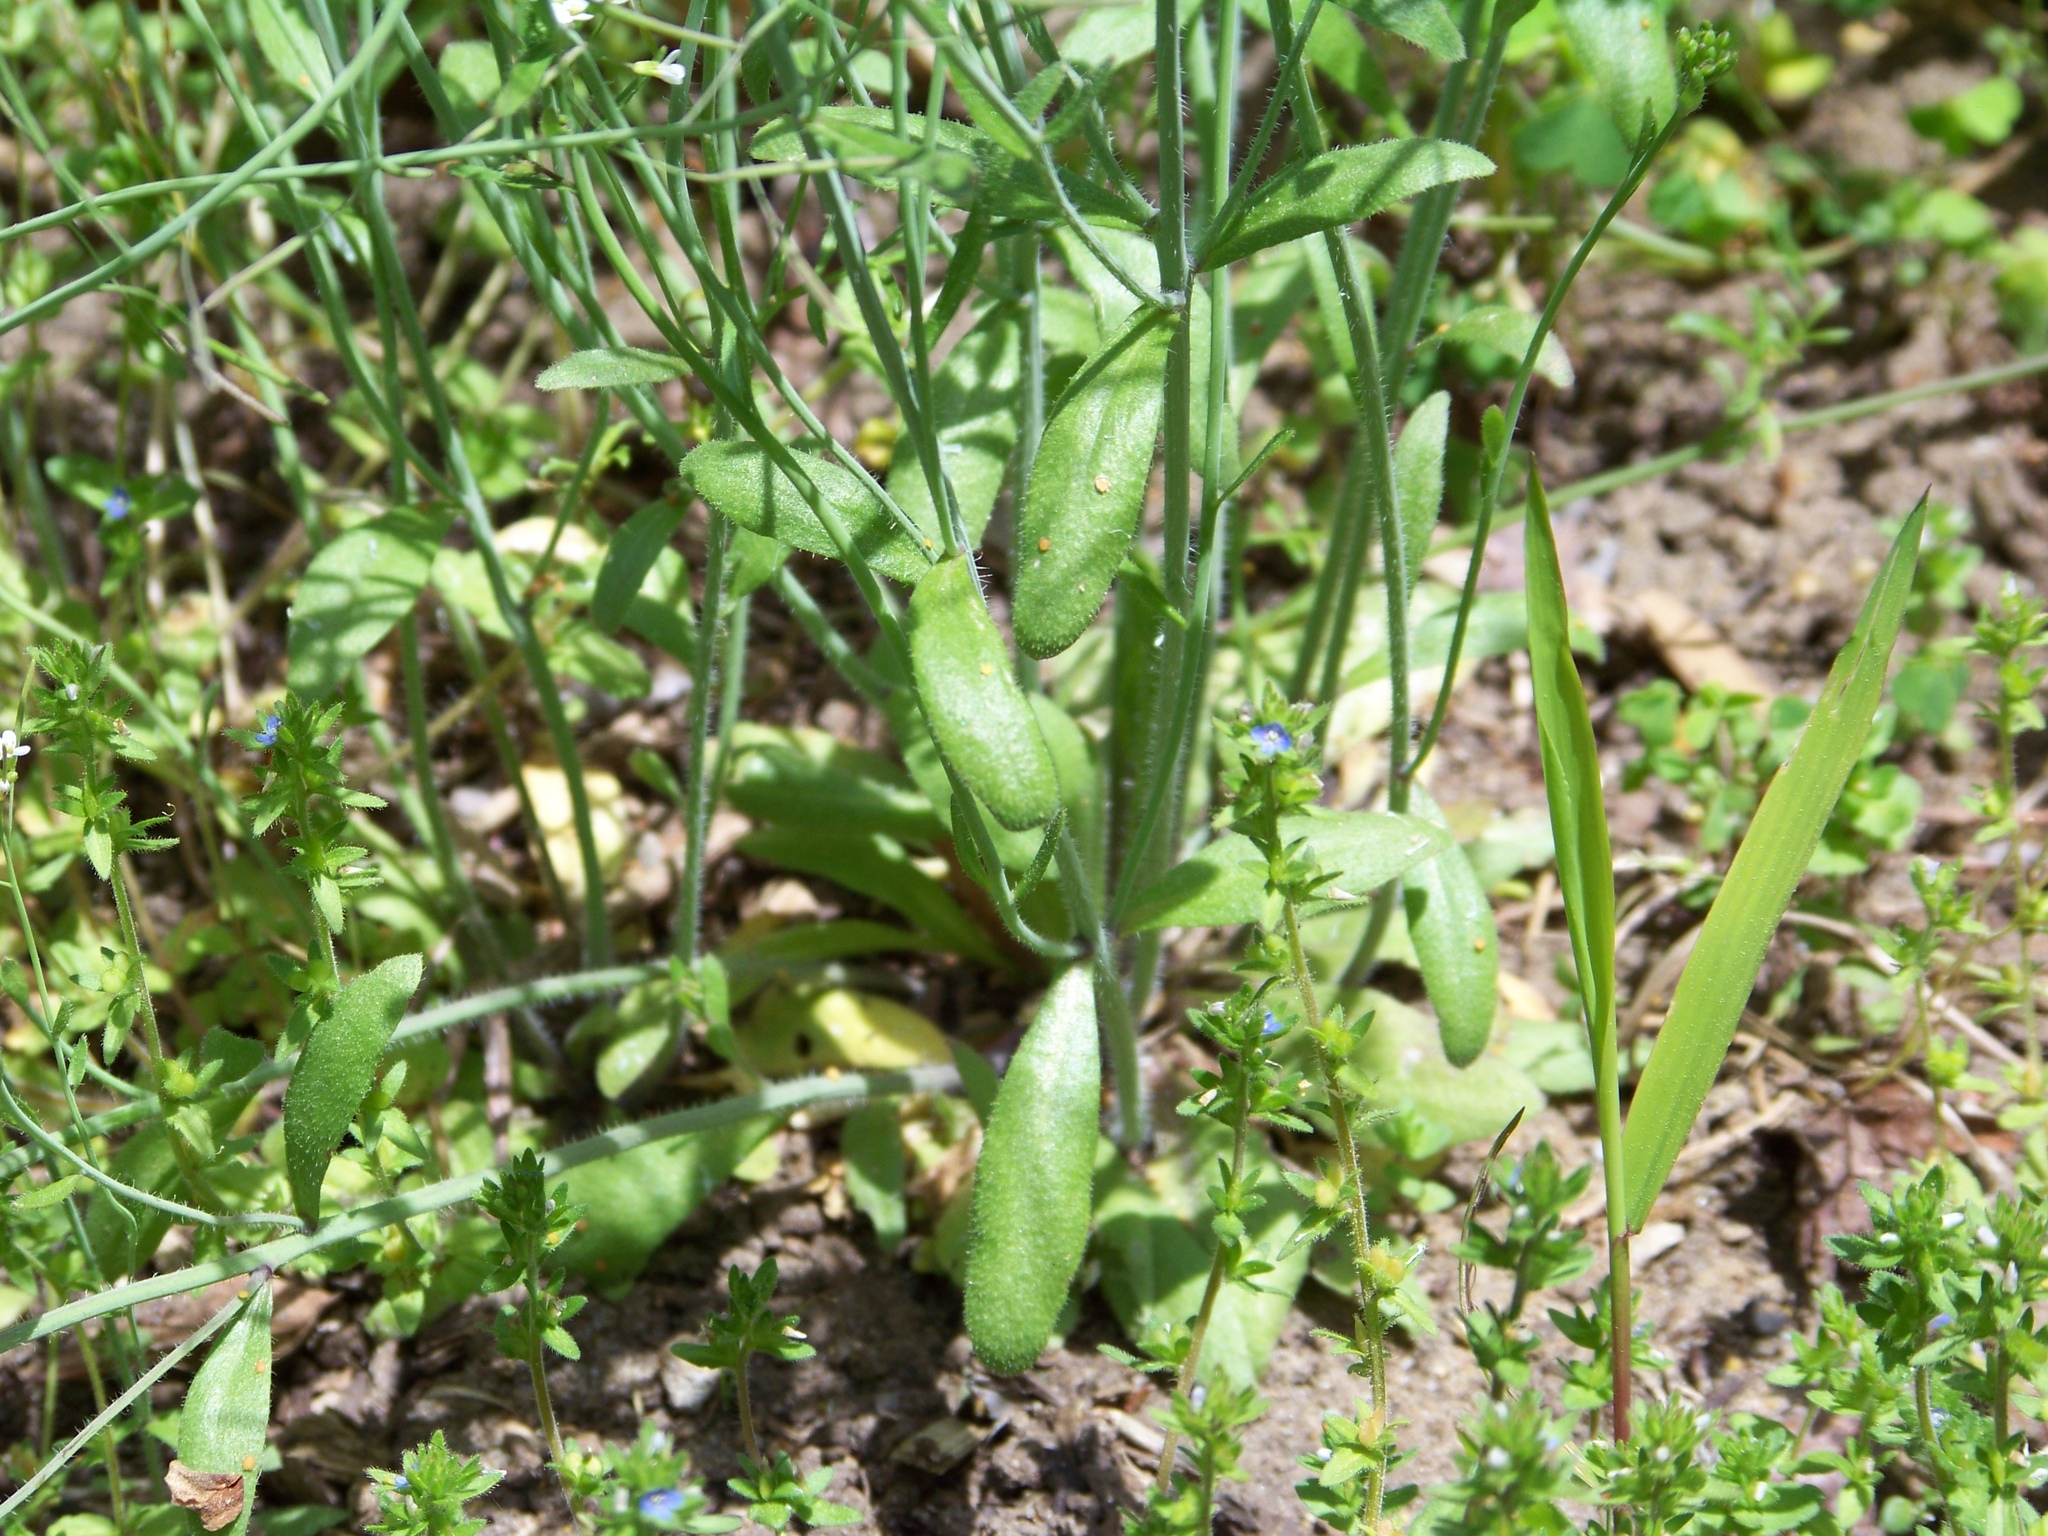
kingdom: Plantae
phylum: Tracheophyta
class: Magnoliopsida
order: Brassicales
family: Brassicaceae
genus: Arabidopsis
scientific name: Arabidopsis thaliana
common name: Thale cress
